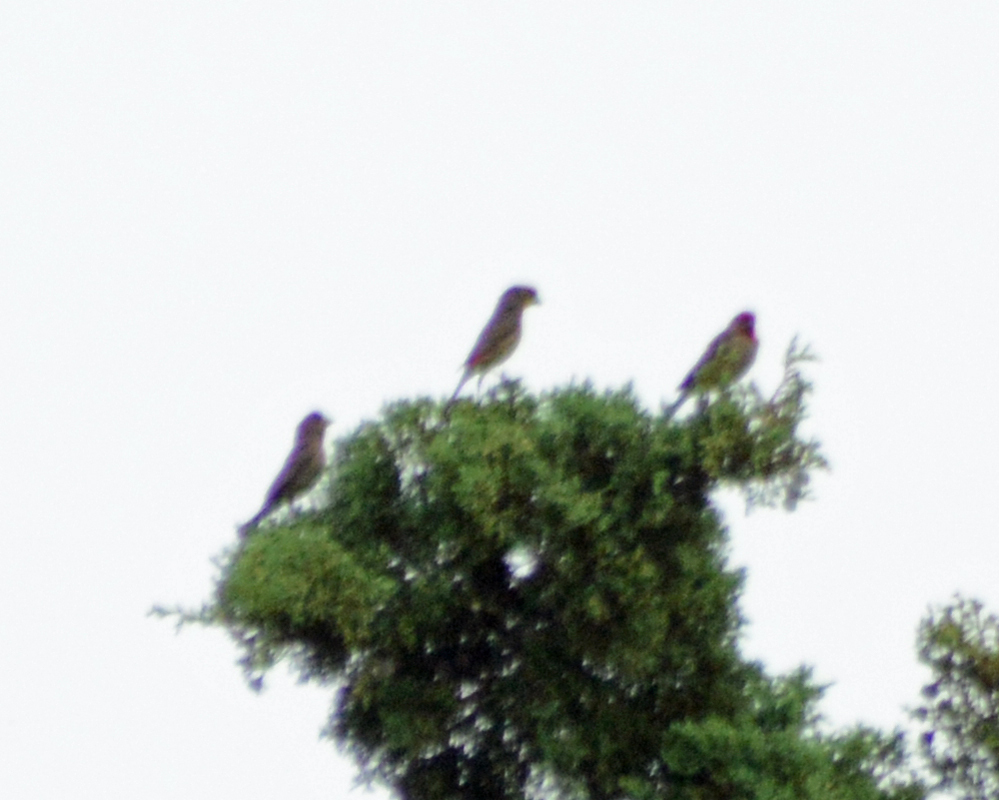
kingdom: Animalia
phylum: Chordata
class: Aves
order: Passeriformes
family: Fringillidae
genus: Haemorhous
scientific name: Haemorhous mexicanus
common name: House finch
